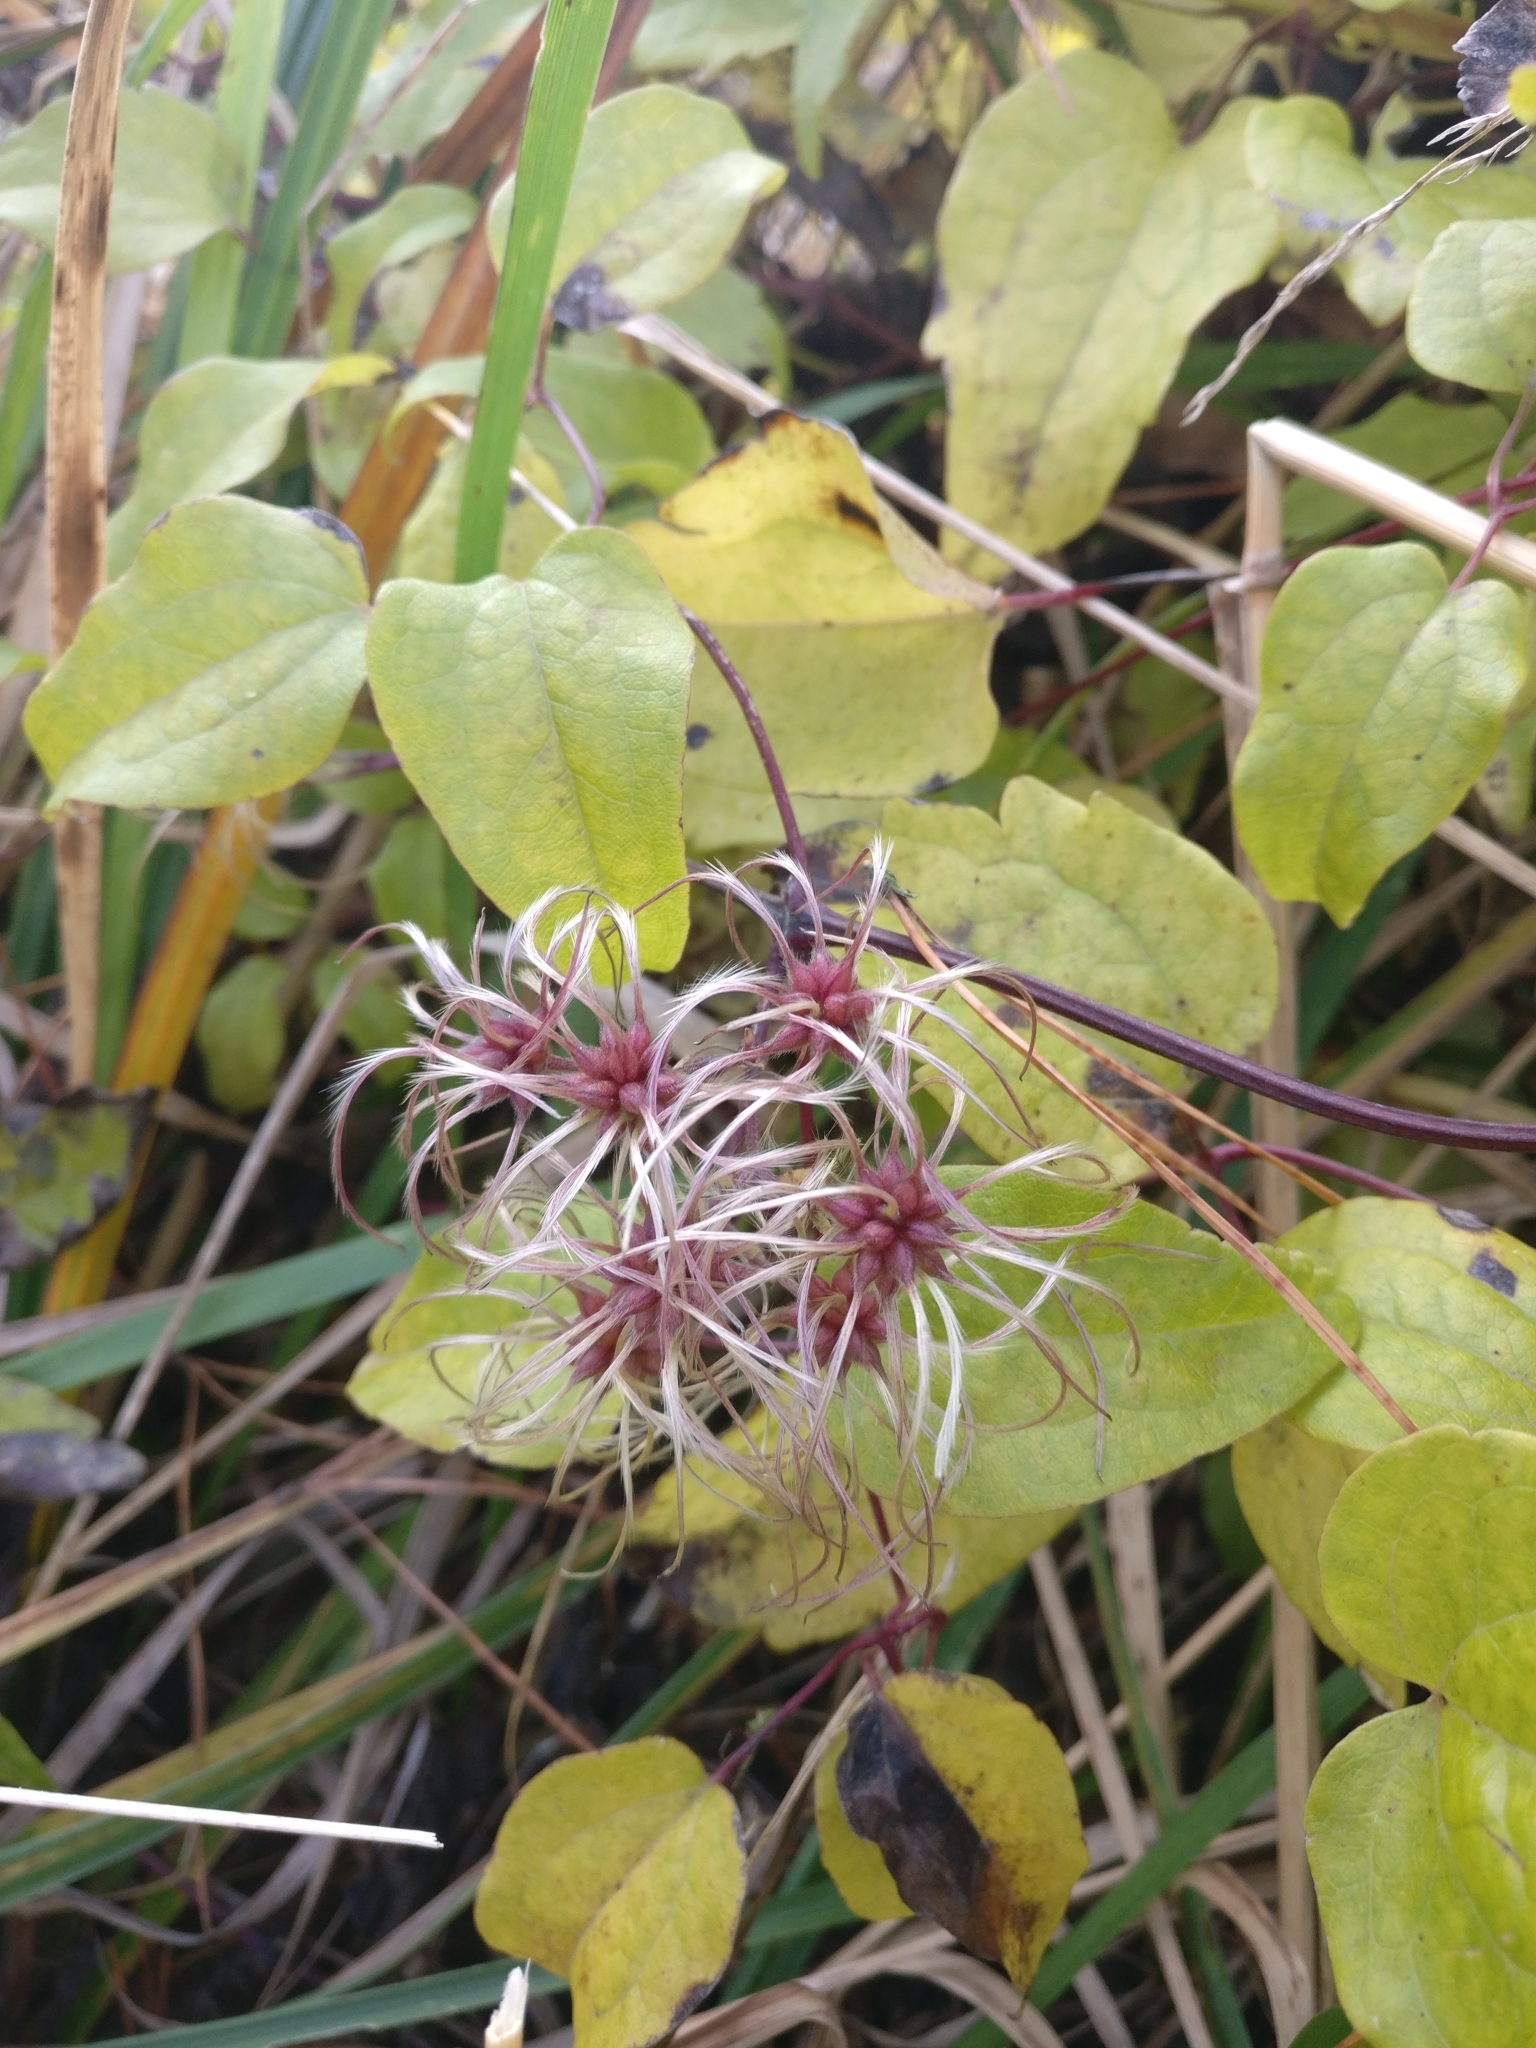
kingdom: Plantae
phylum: Tracheophyta
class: Magnoliopsida
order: Ranunculales
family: Ranunculaceae
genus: Clematis
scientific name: Clematis vitalba
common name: Evergreen clematis
